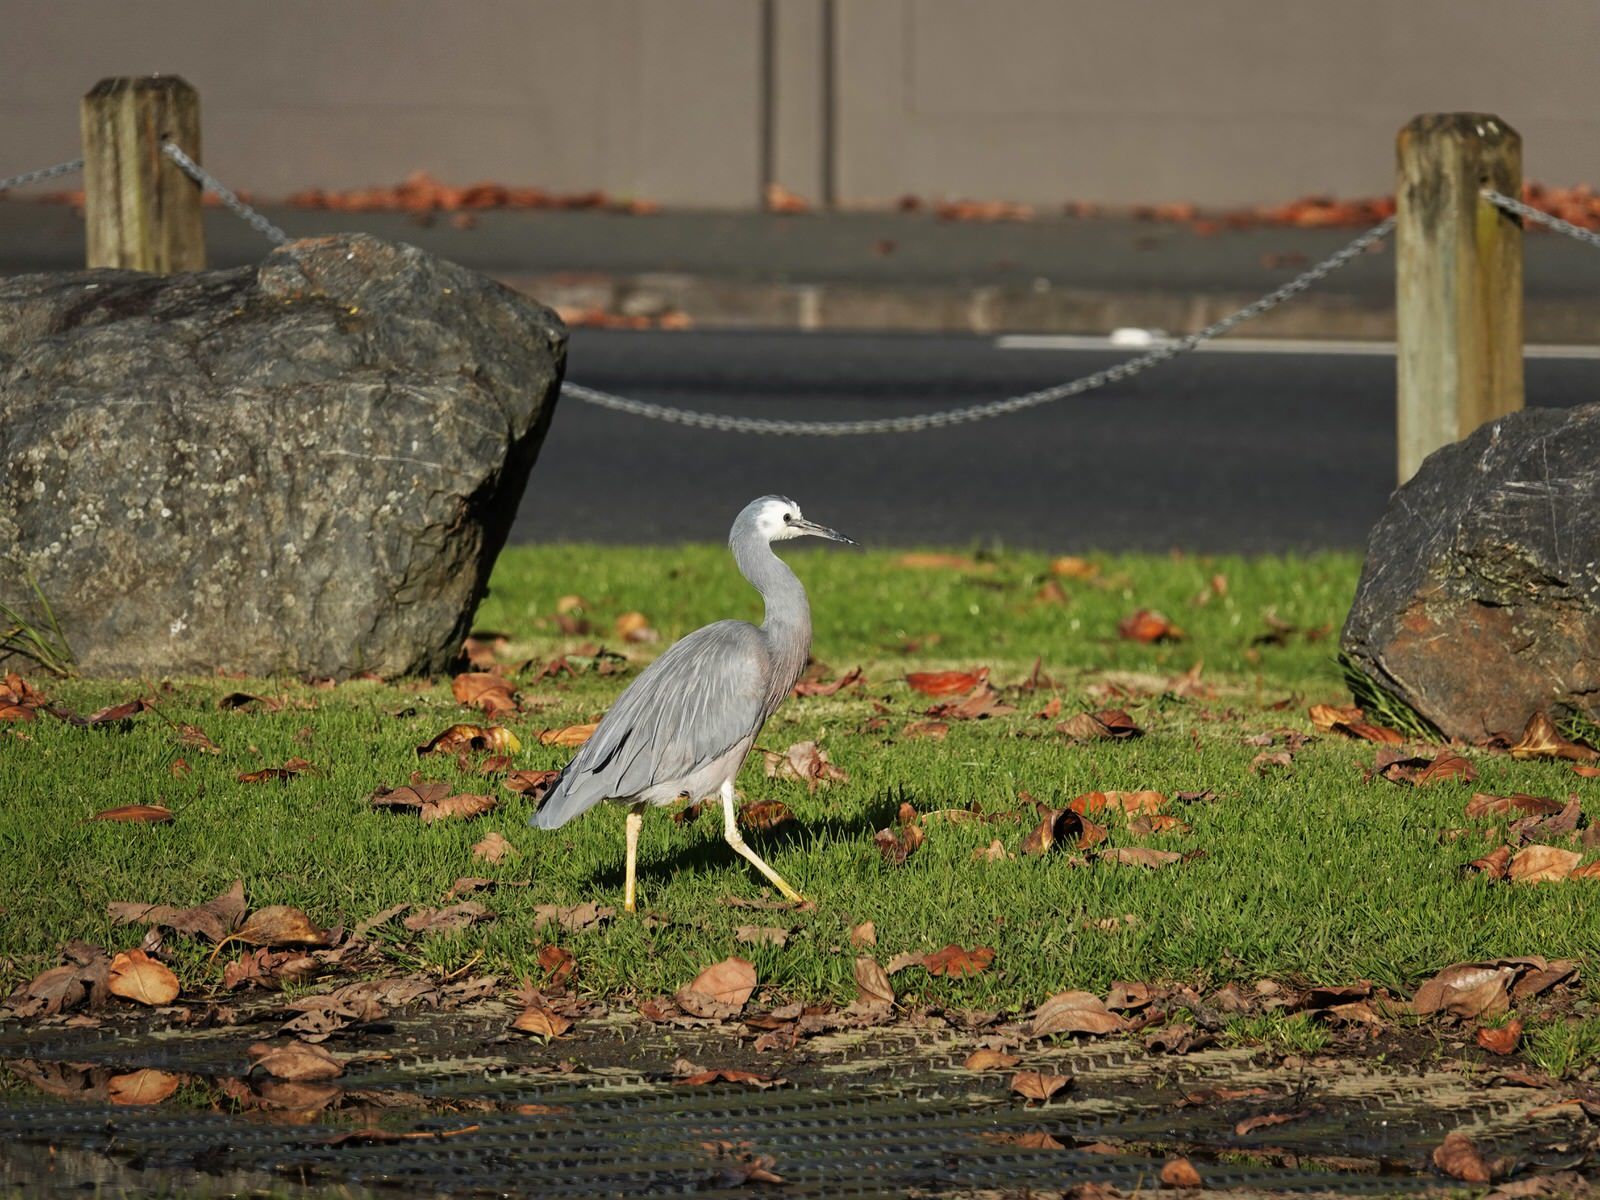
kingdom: Animalia
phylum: Chordata
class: Aves
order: Pelecaniformes
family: Ardeidae
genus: Egretta
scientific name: Egretta novaehollandiae
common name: White-faced heron
